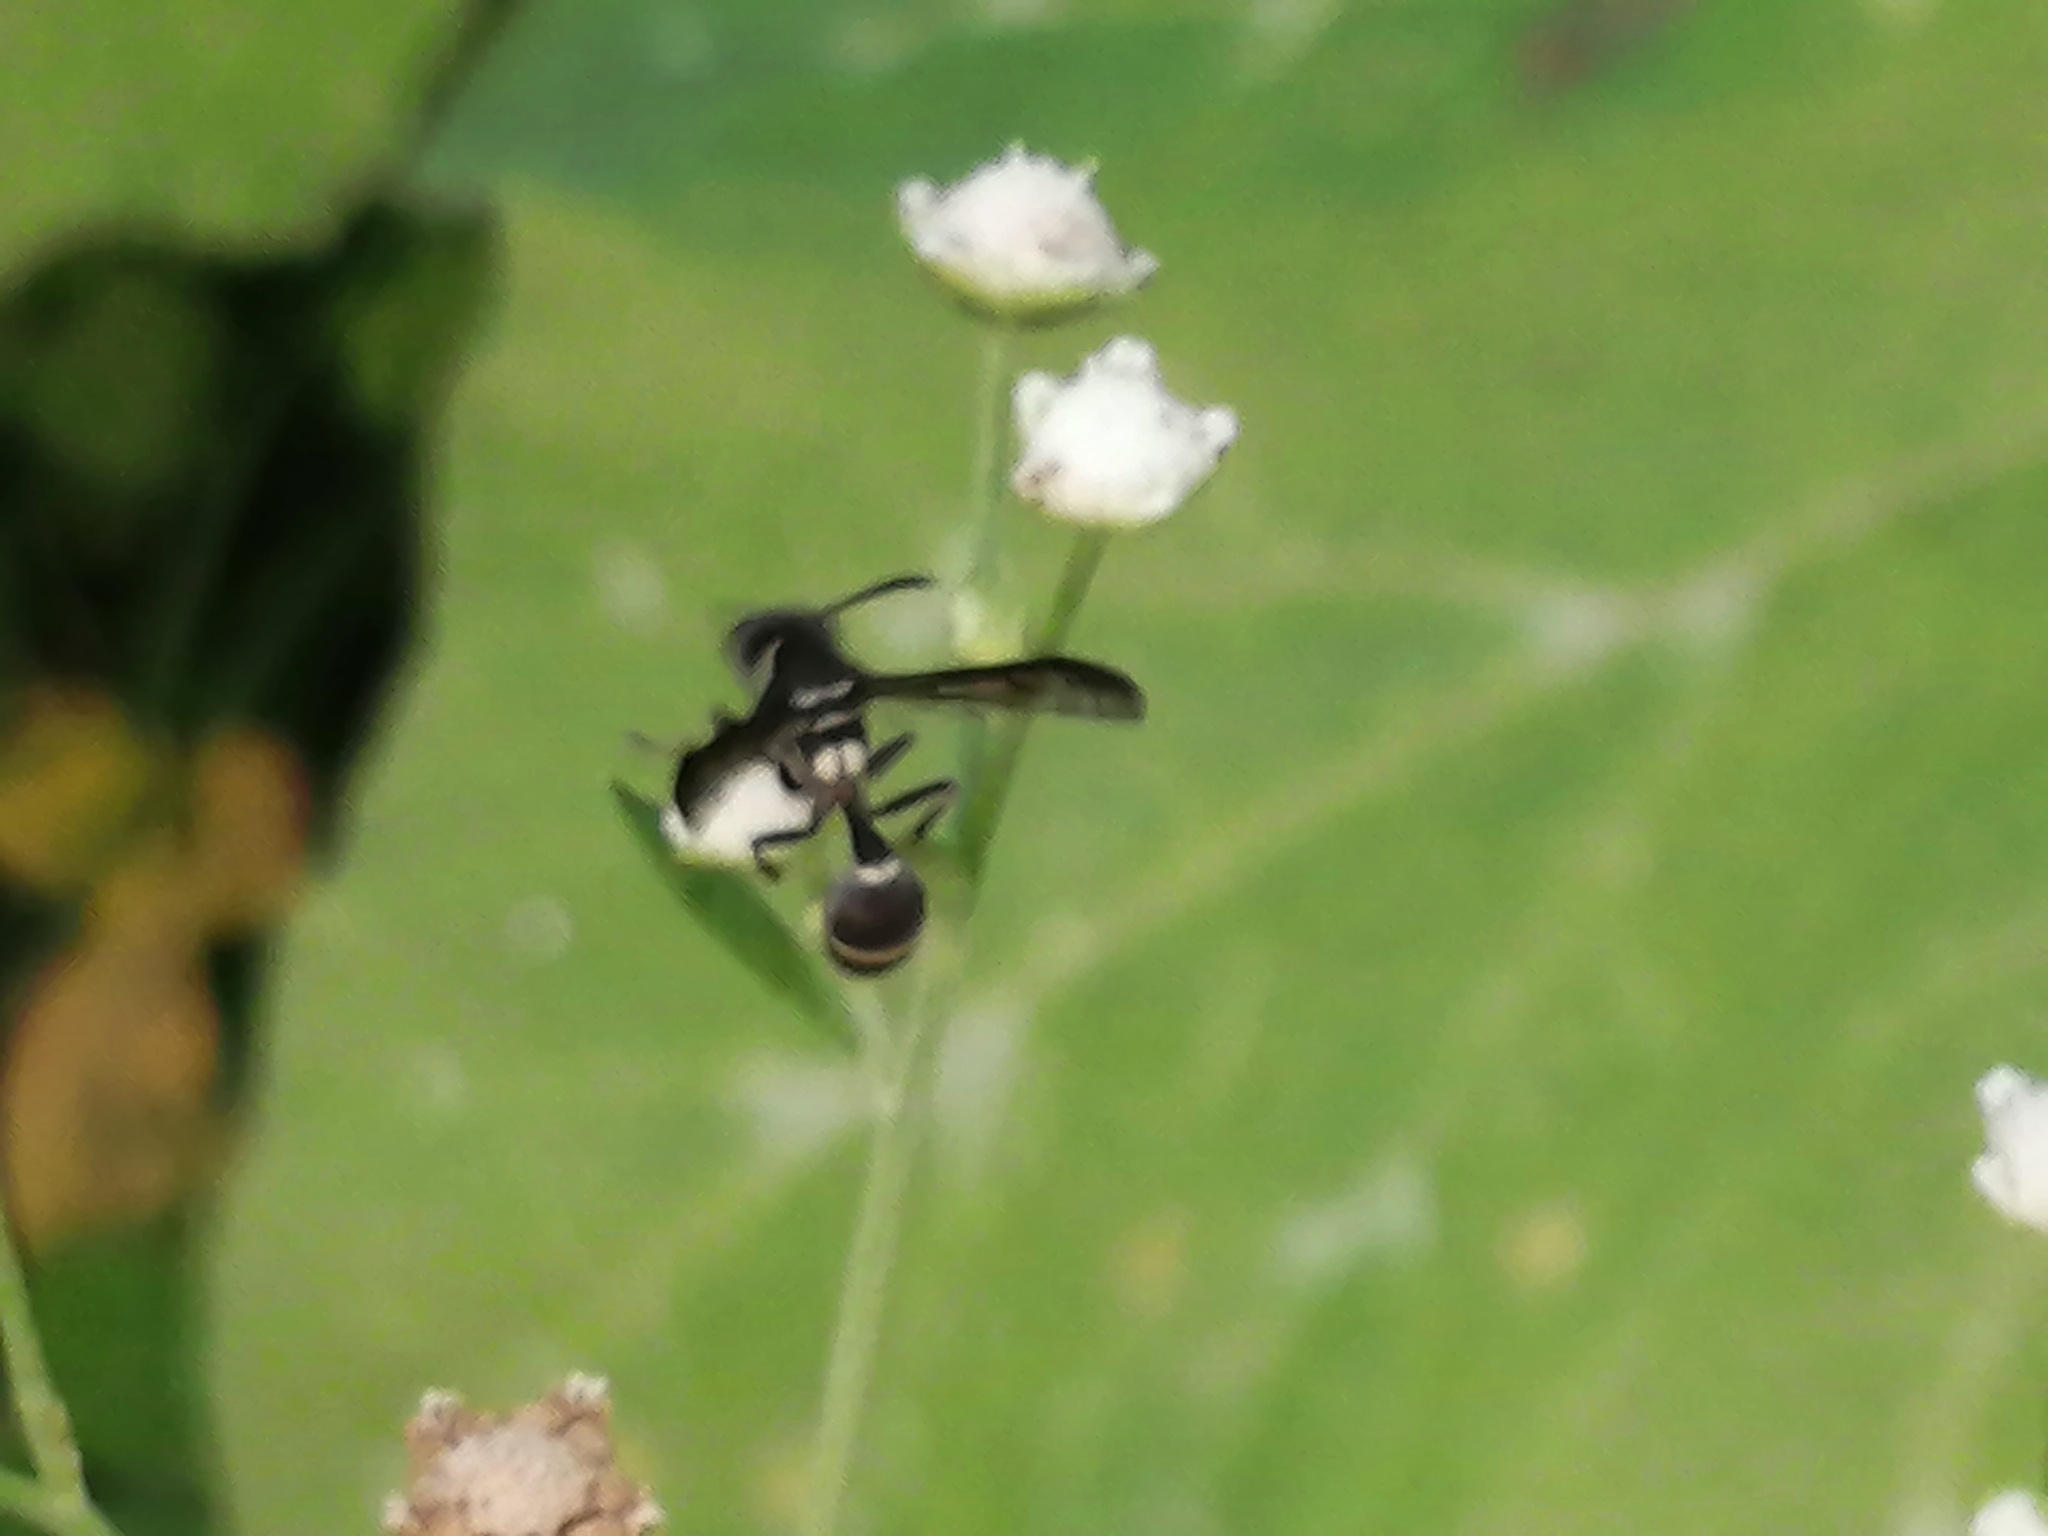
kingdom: Animalia
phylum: Arthropoda
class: Insecta
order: Hymenoptera
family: Eumenidae
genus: Polybia
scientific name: Polybia plebeja
